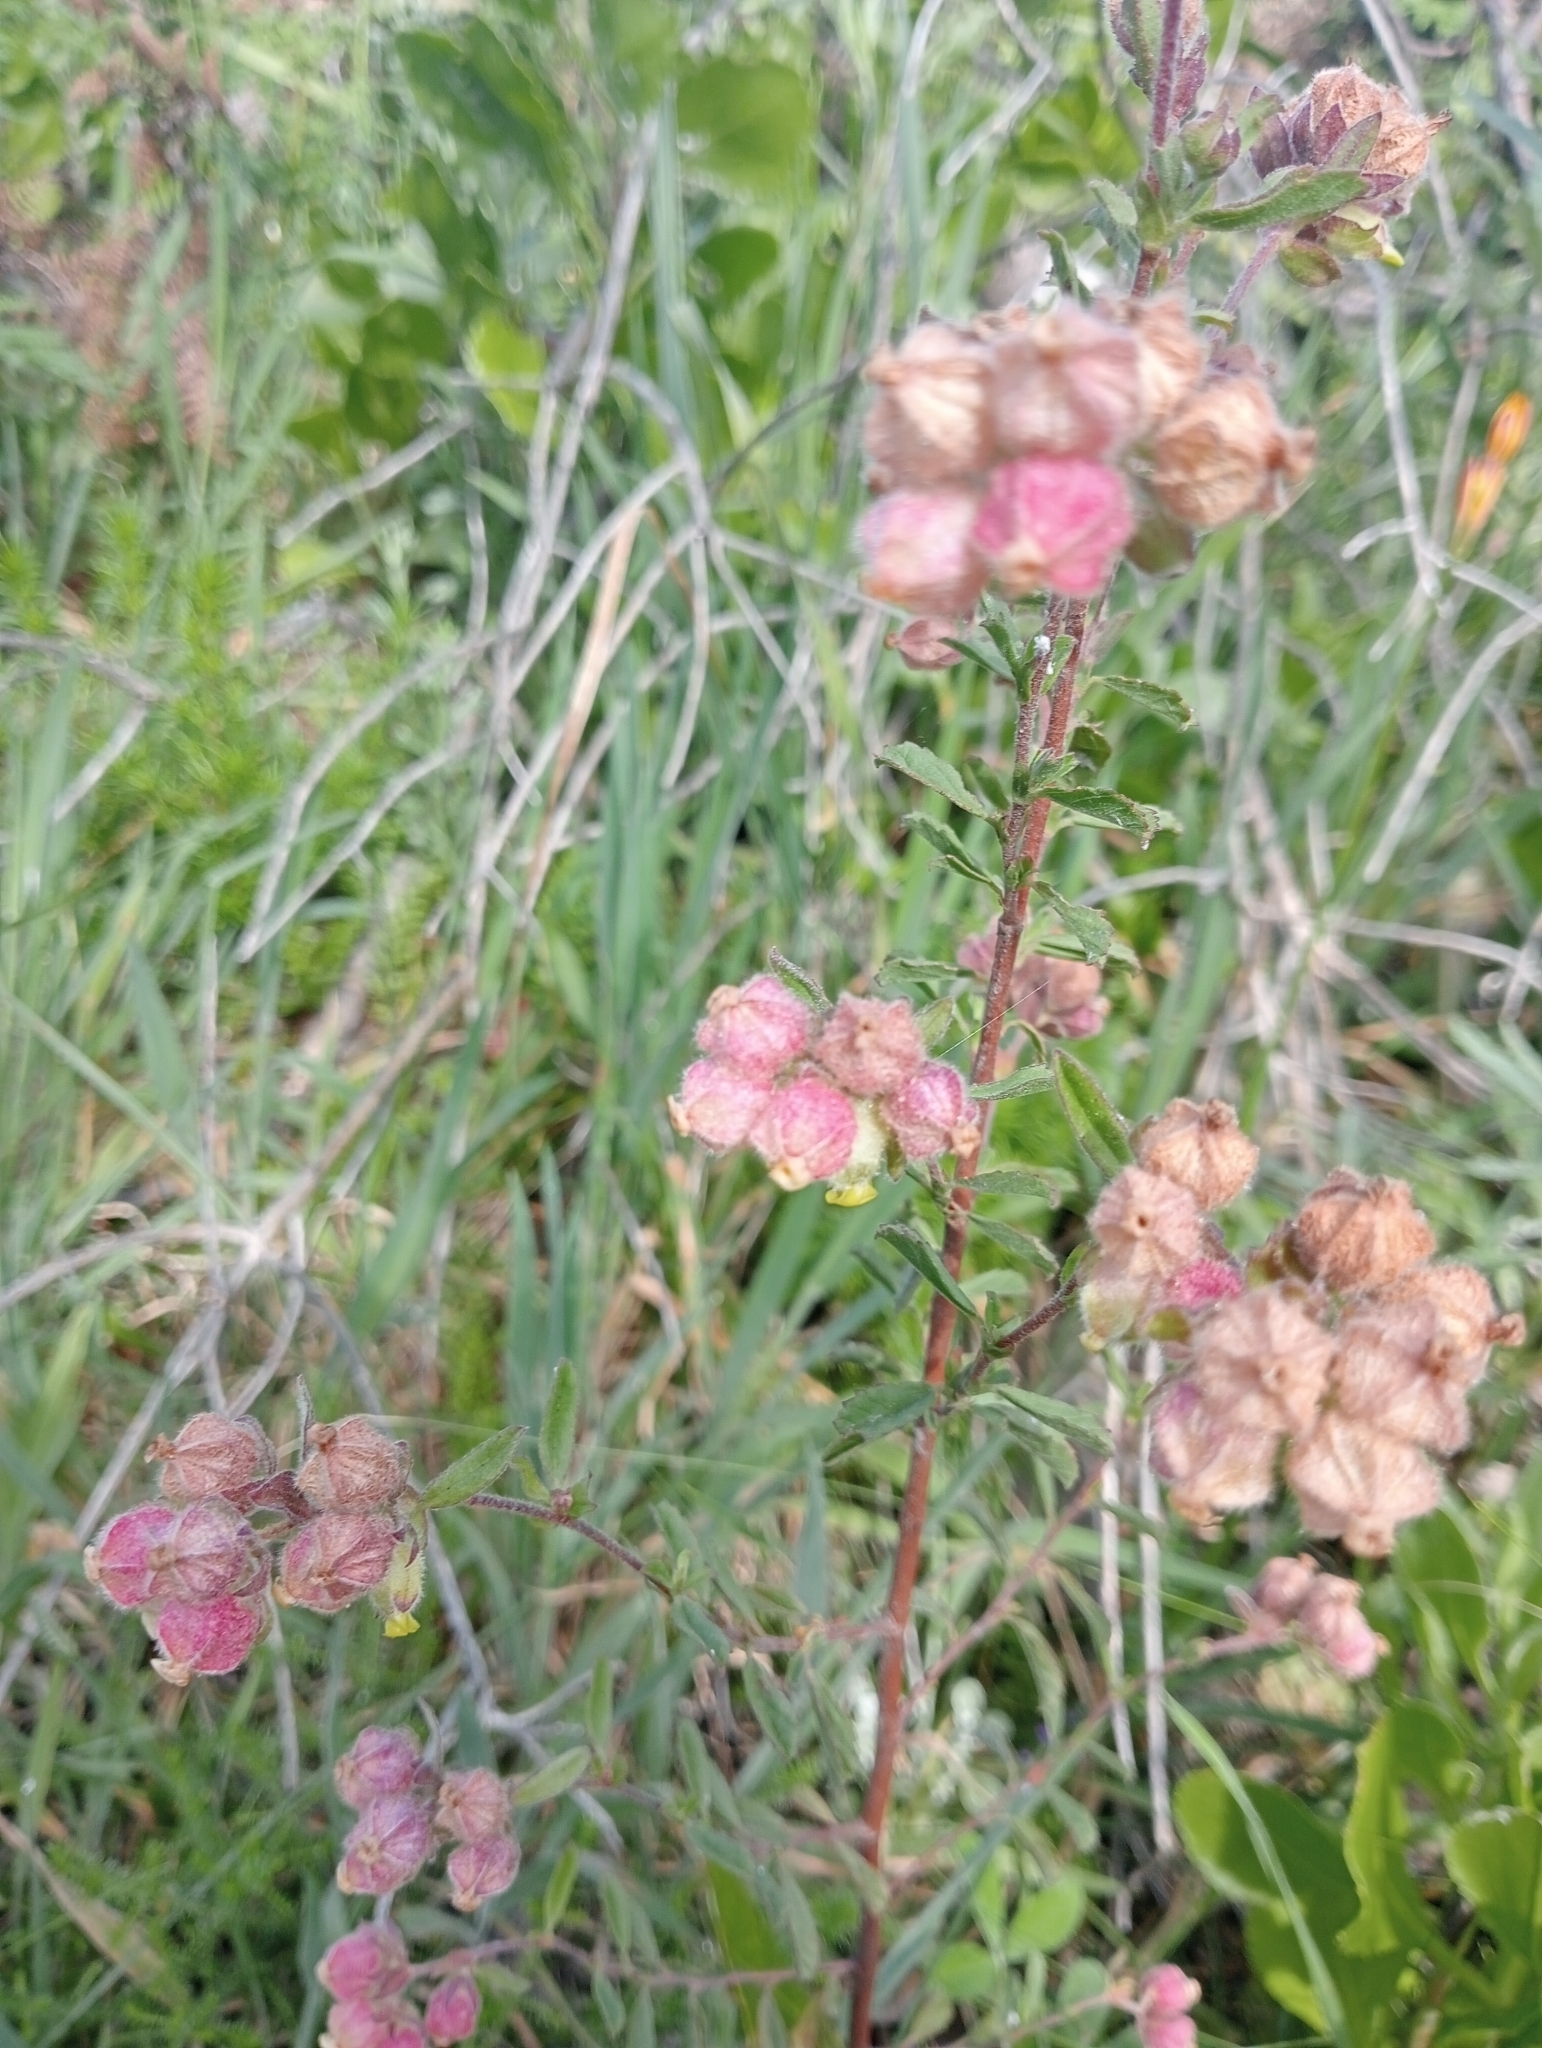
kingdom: Plantae
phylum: Tracheophyta
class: Magnoliopsida
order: Malvales
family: Malvaceae
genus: Hermannia
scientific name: Hermannia hyssopifolia
